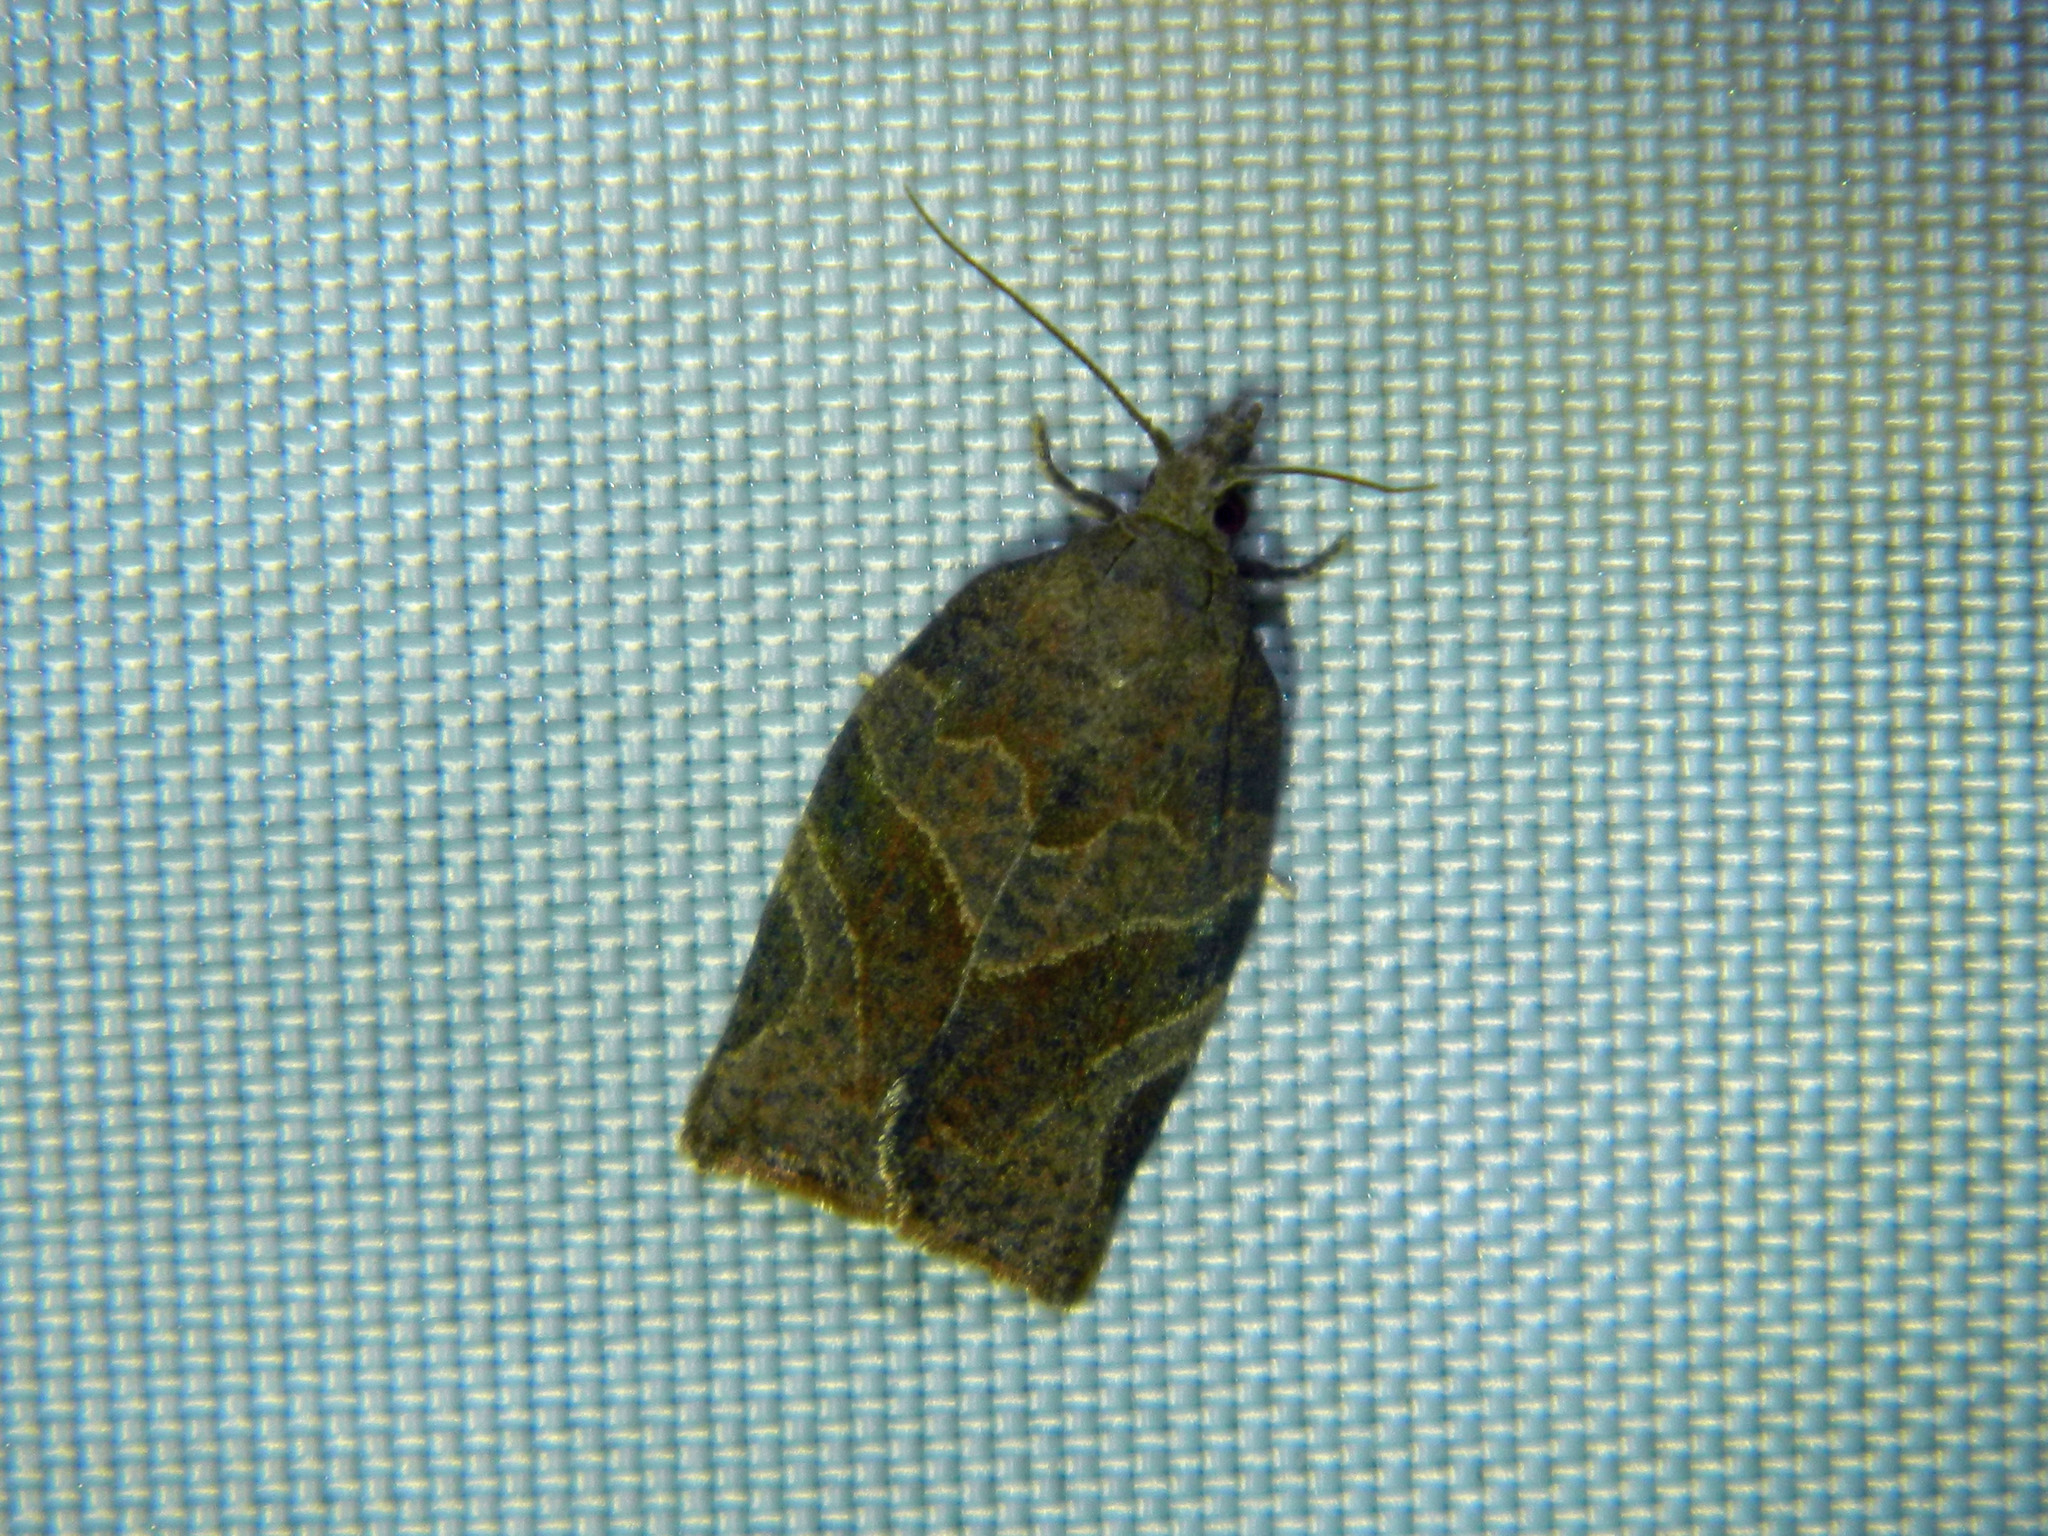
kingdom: Animalia
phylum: Arthropoda
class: Insecta
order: Lepidoptera
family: Tortricidae
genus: Pandemis
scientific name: Pandemis canadana
